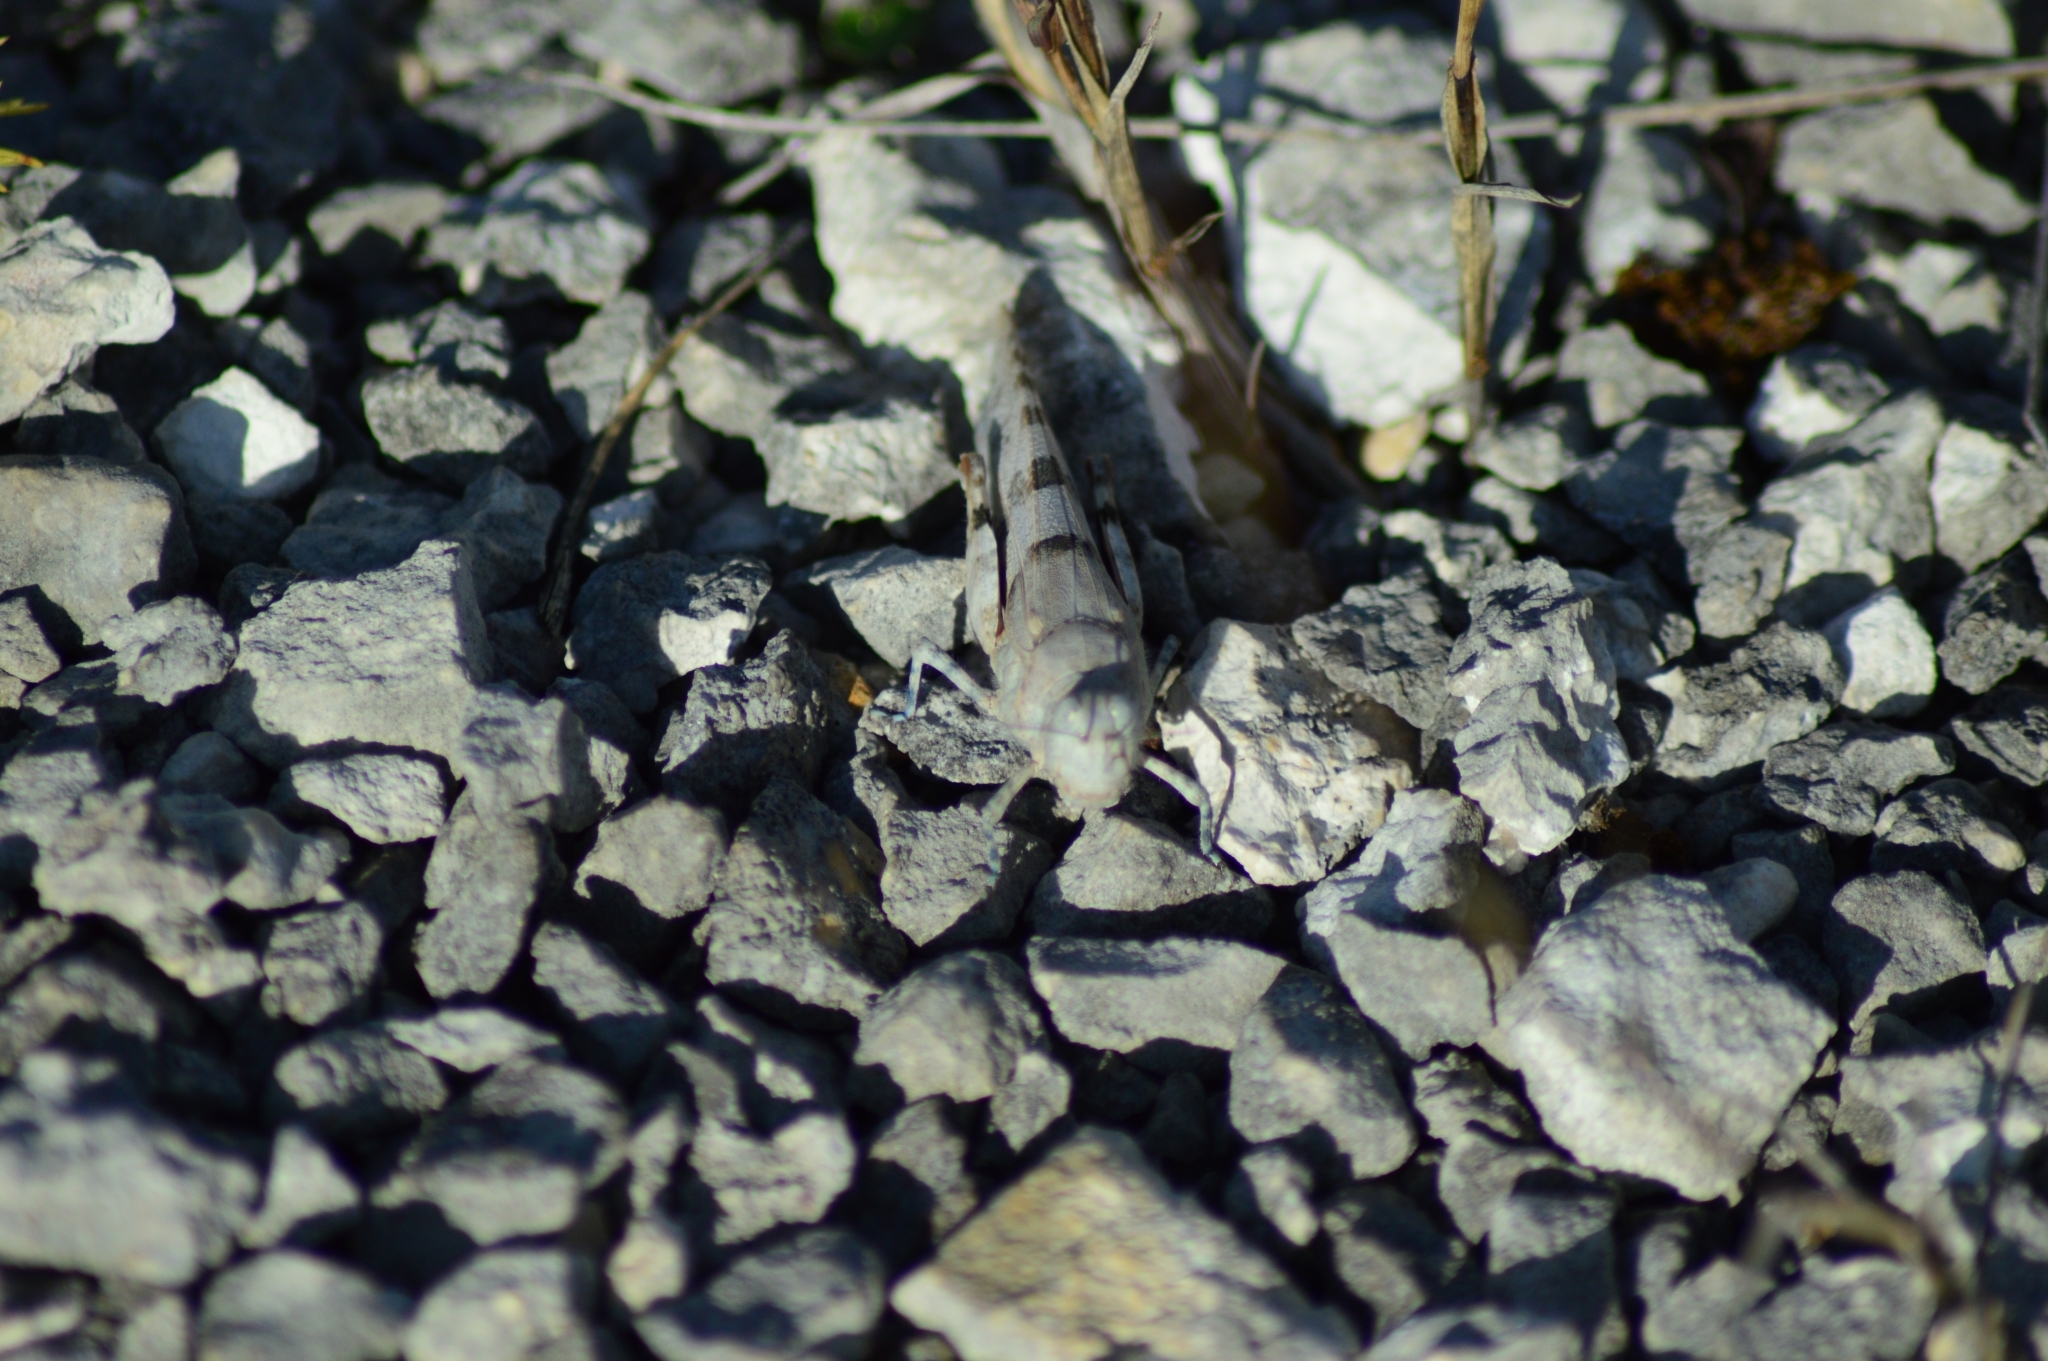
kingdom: Animalia
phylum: Arthropoda
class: Insecta
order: Orthoptera
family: Acrididae
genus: Sphingonotus
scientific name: Sphingonotus caerulans
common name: Blue-winged locust
